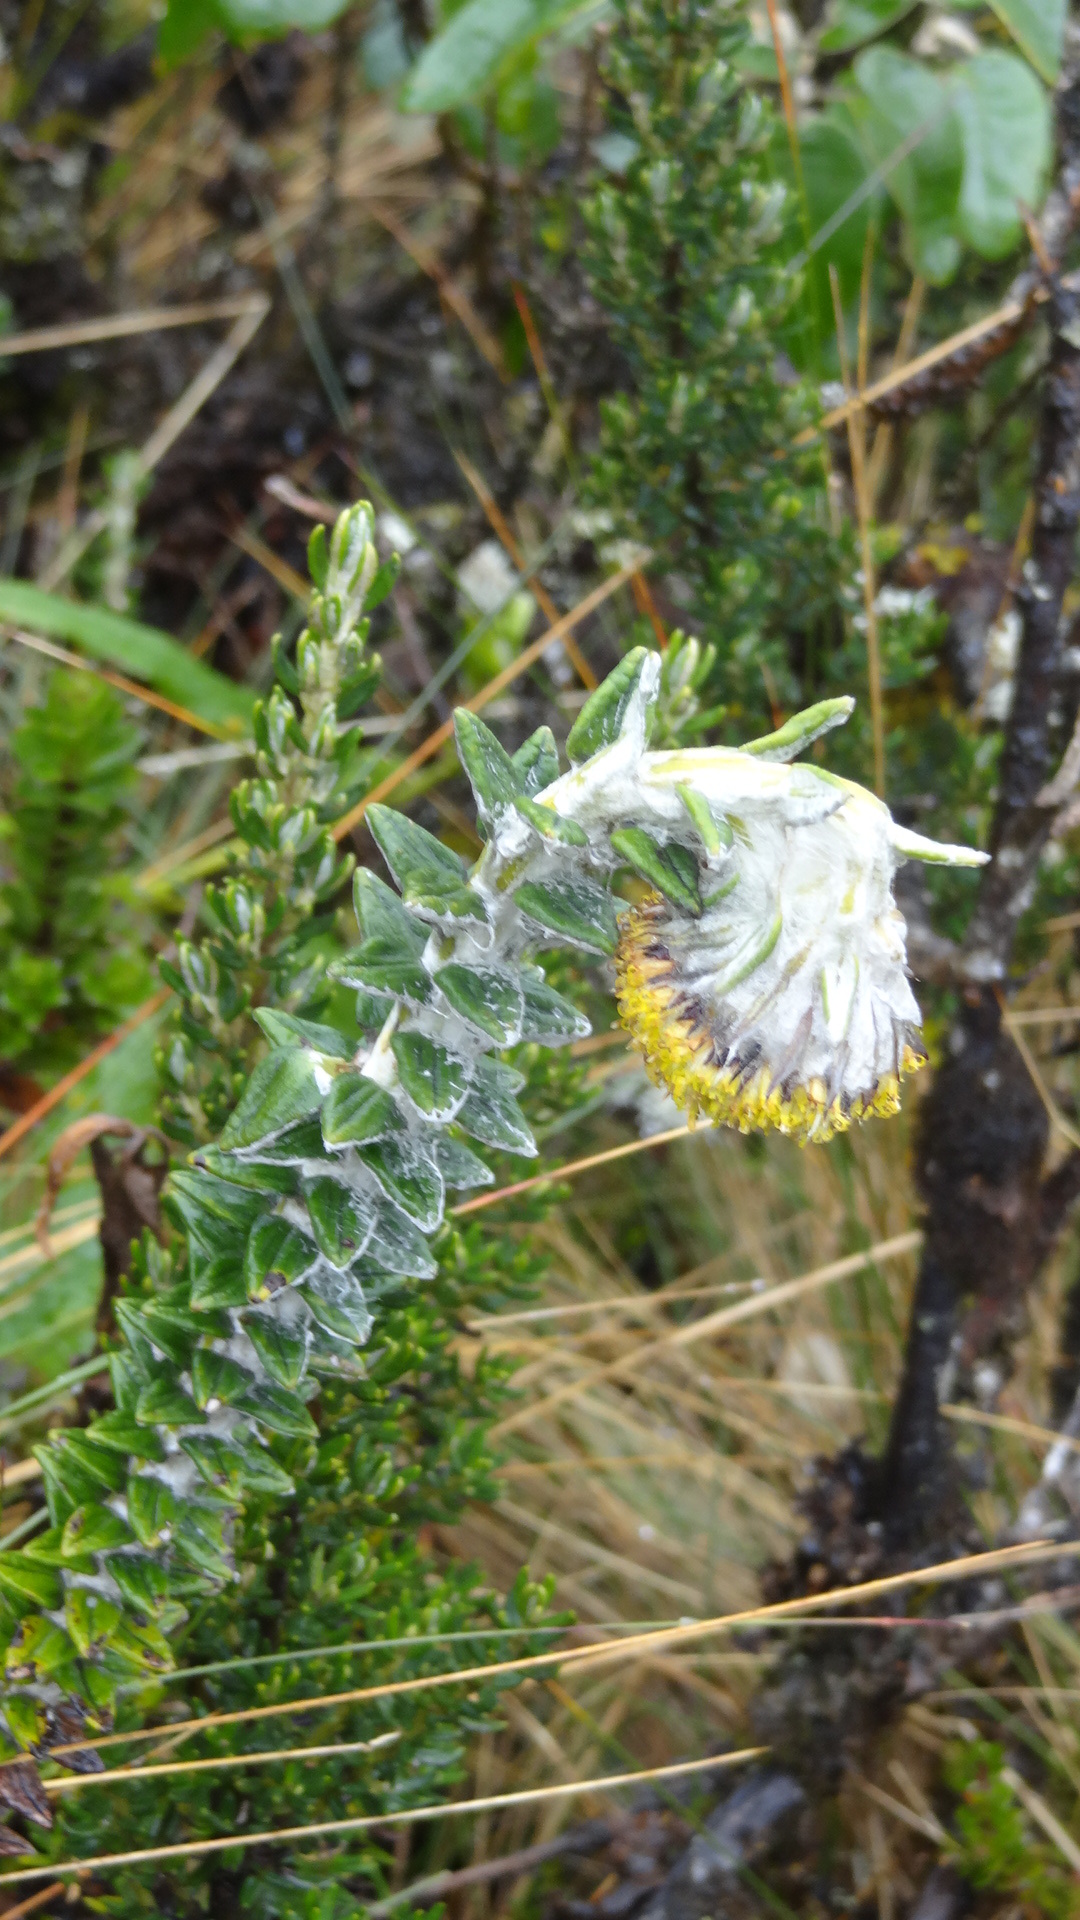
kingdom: Plantae
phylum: Tracheophyta
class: Magnoliopsida
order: Asterales
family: Asteraceae
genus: Lasiocephalus
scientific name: Lasiocephalus ovatus
